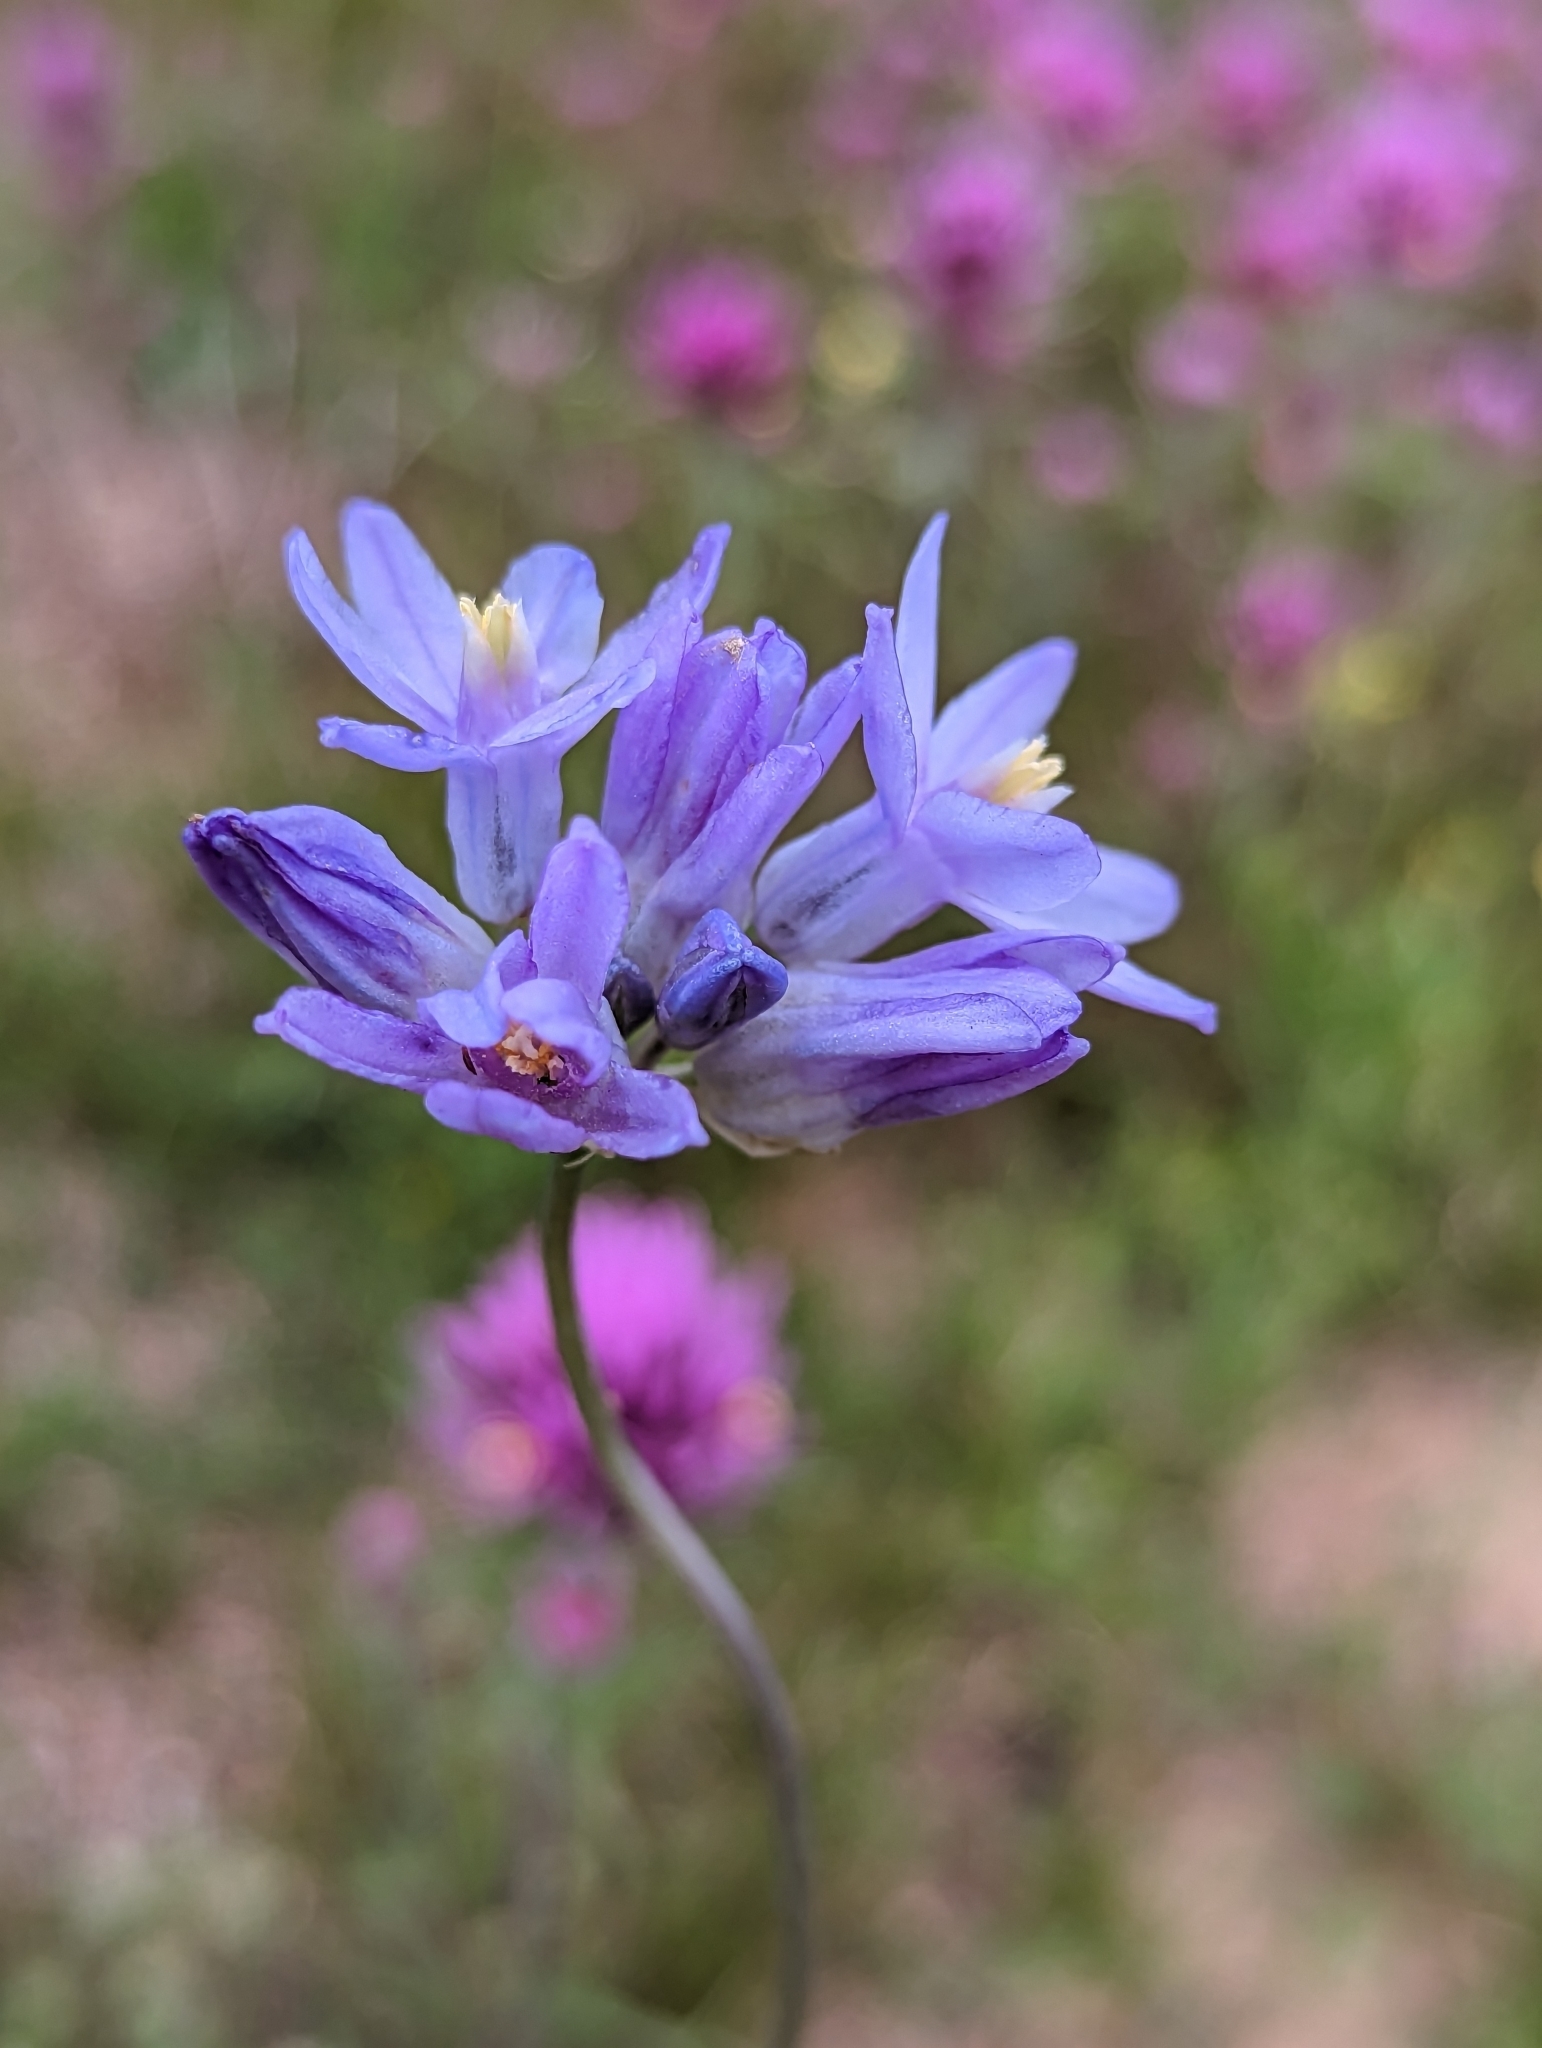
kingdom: Plantae
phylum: Tracheophyta
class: Liliopsida
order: Asparagales
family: Asparagaceae
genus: Dipterostemon
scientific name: Dipterostemon capitatus
